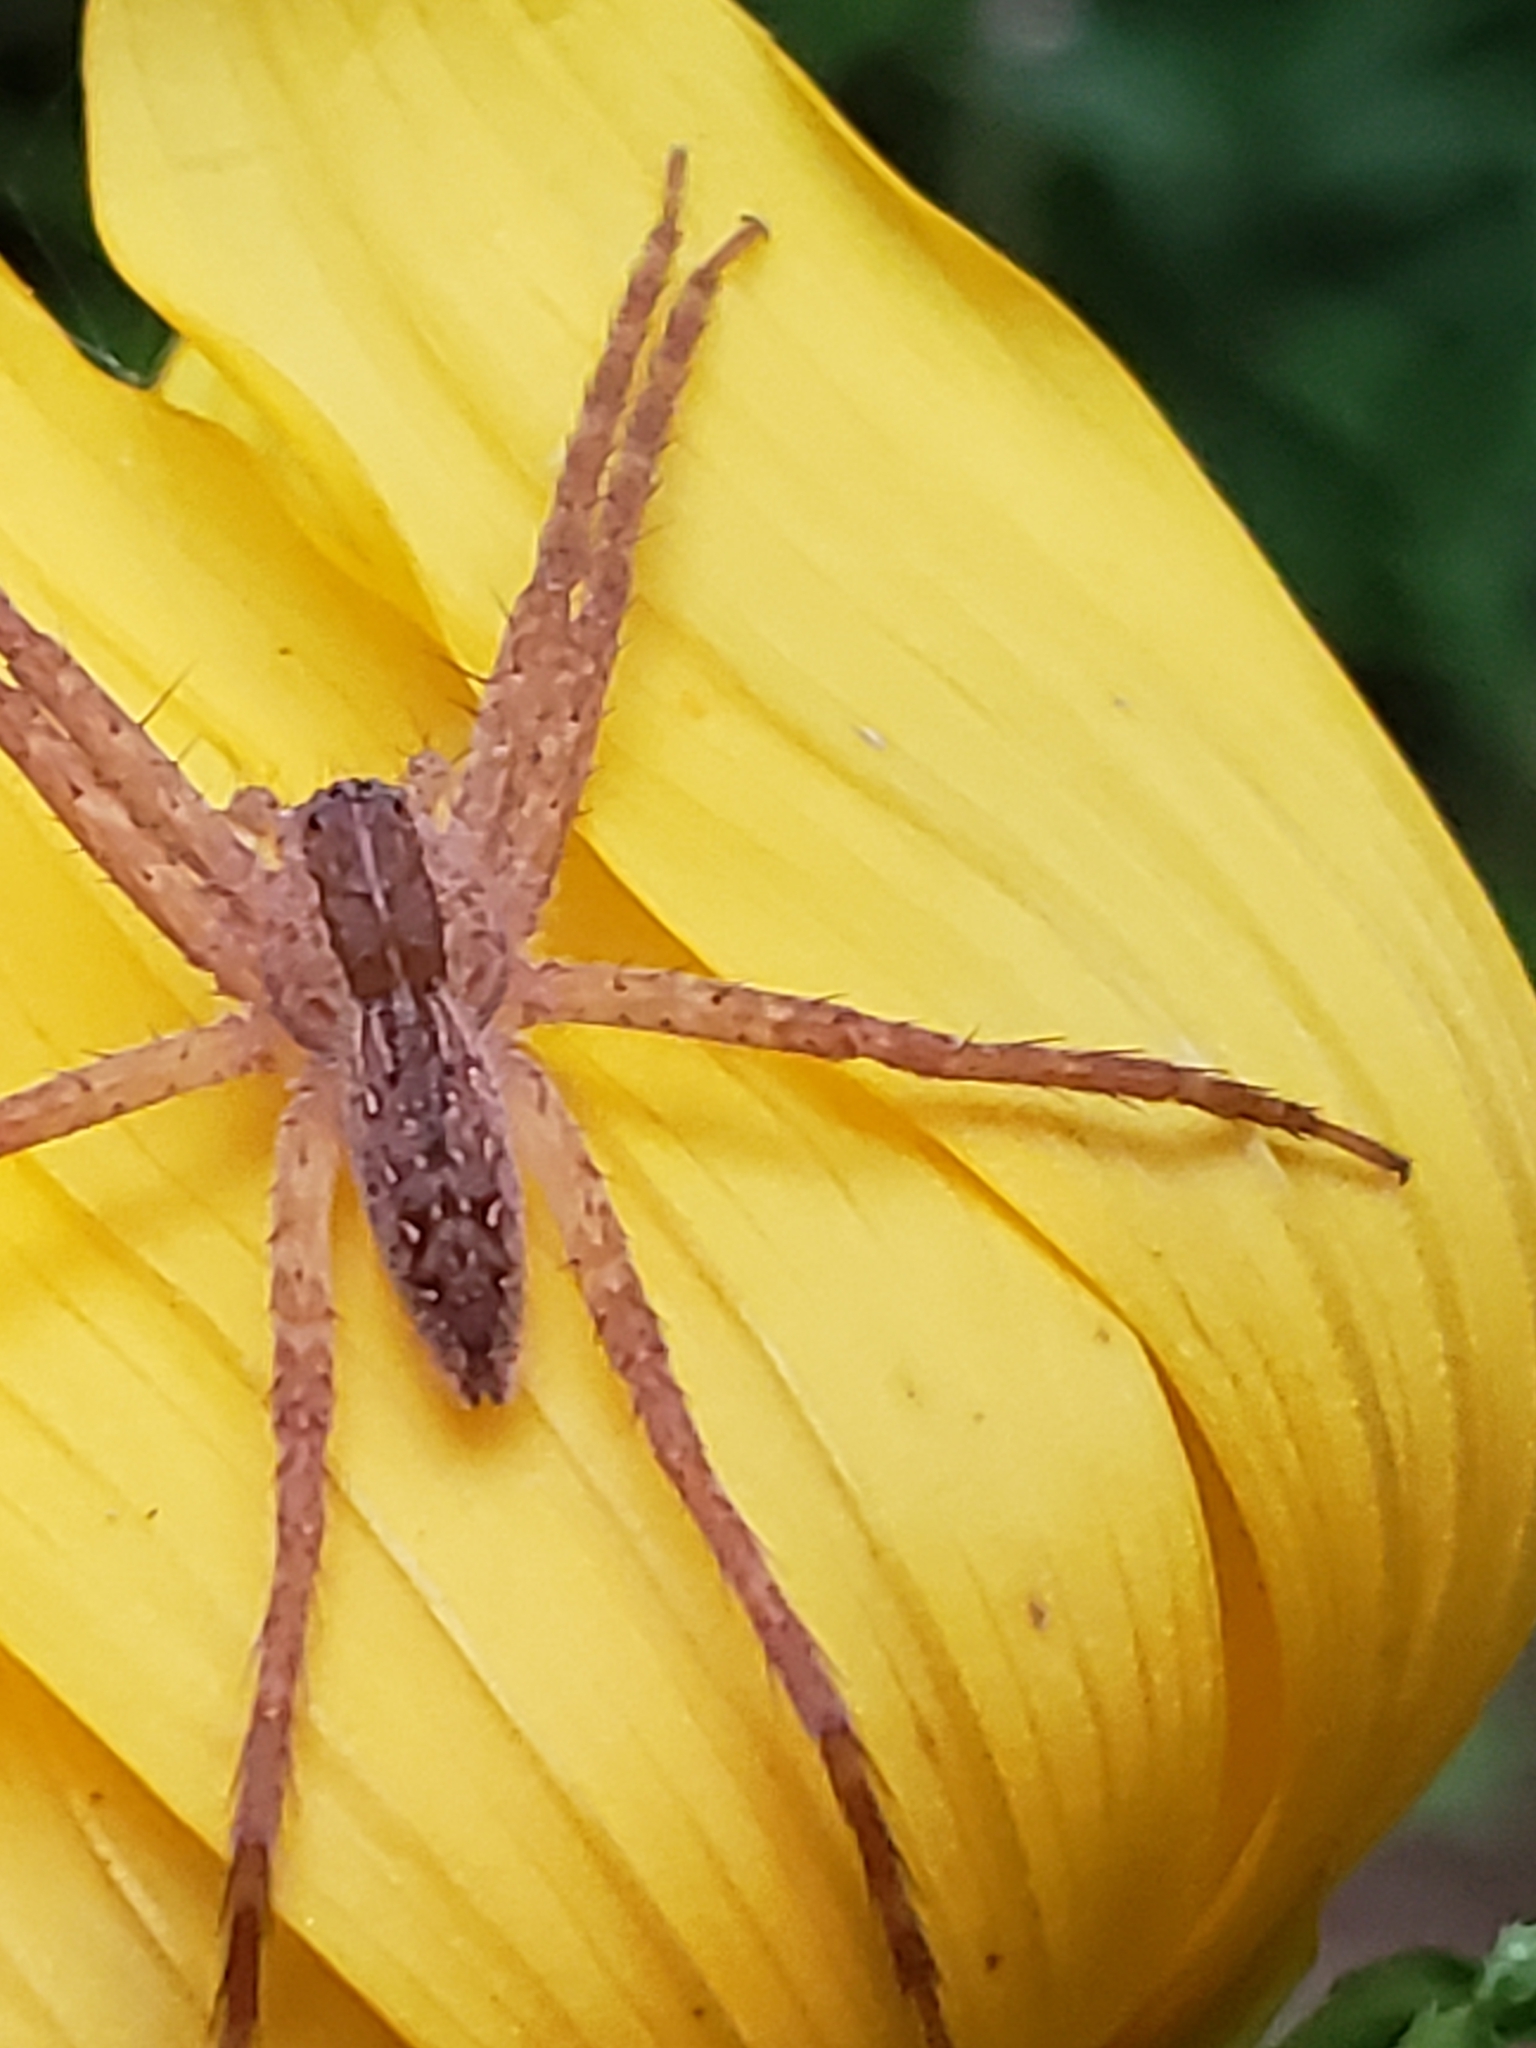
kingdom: Animalia
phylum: Arthropoda
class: Arachnida
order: Araneae
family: Pisauridae
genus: Pisaurina
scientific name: Pisaurina mira
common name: American nursery web spider
